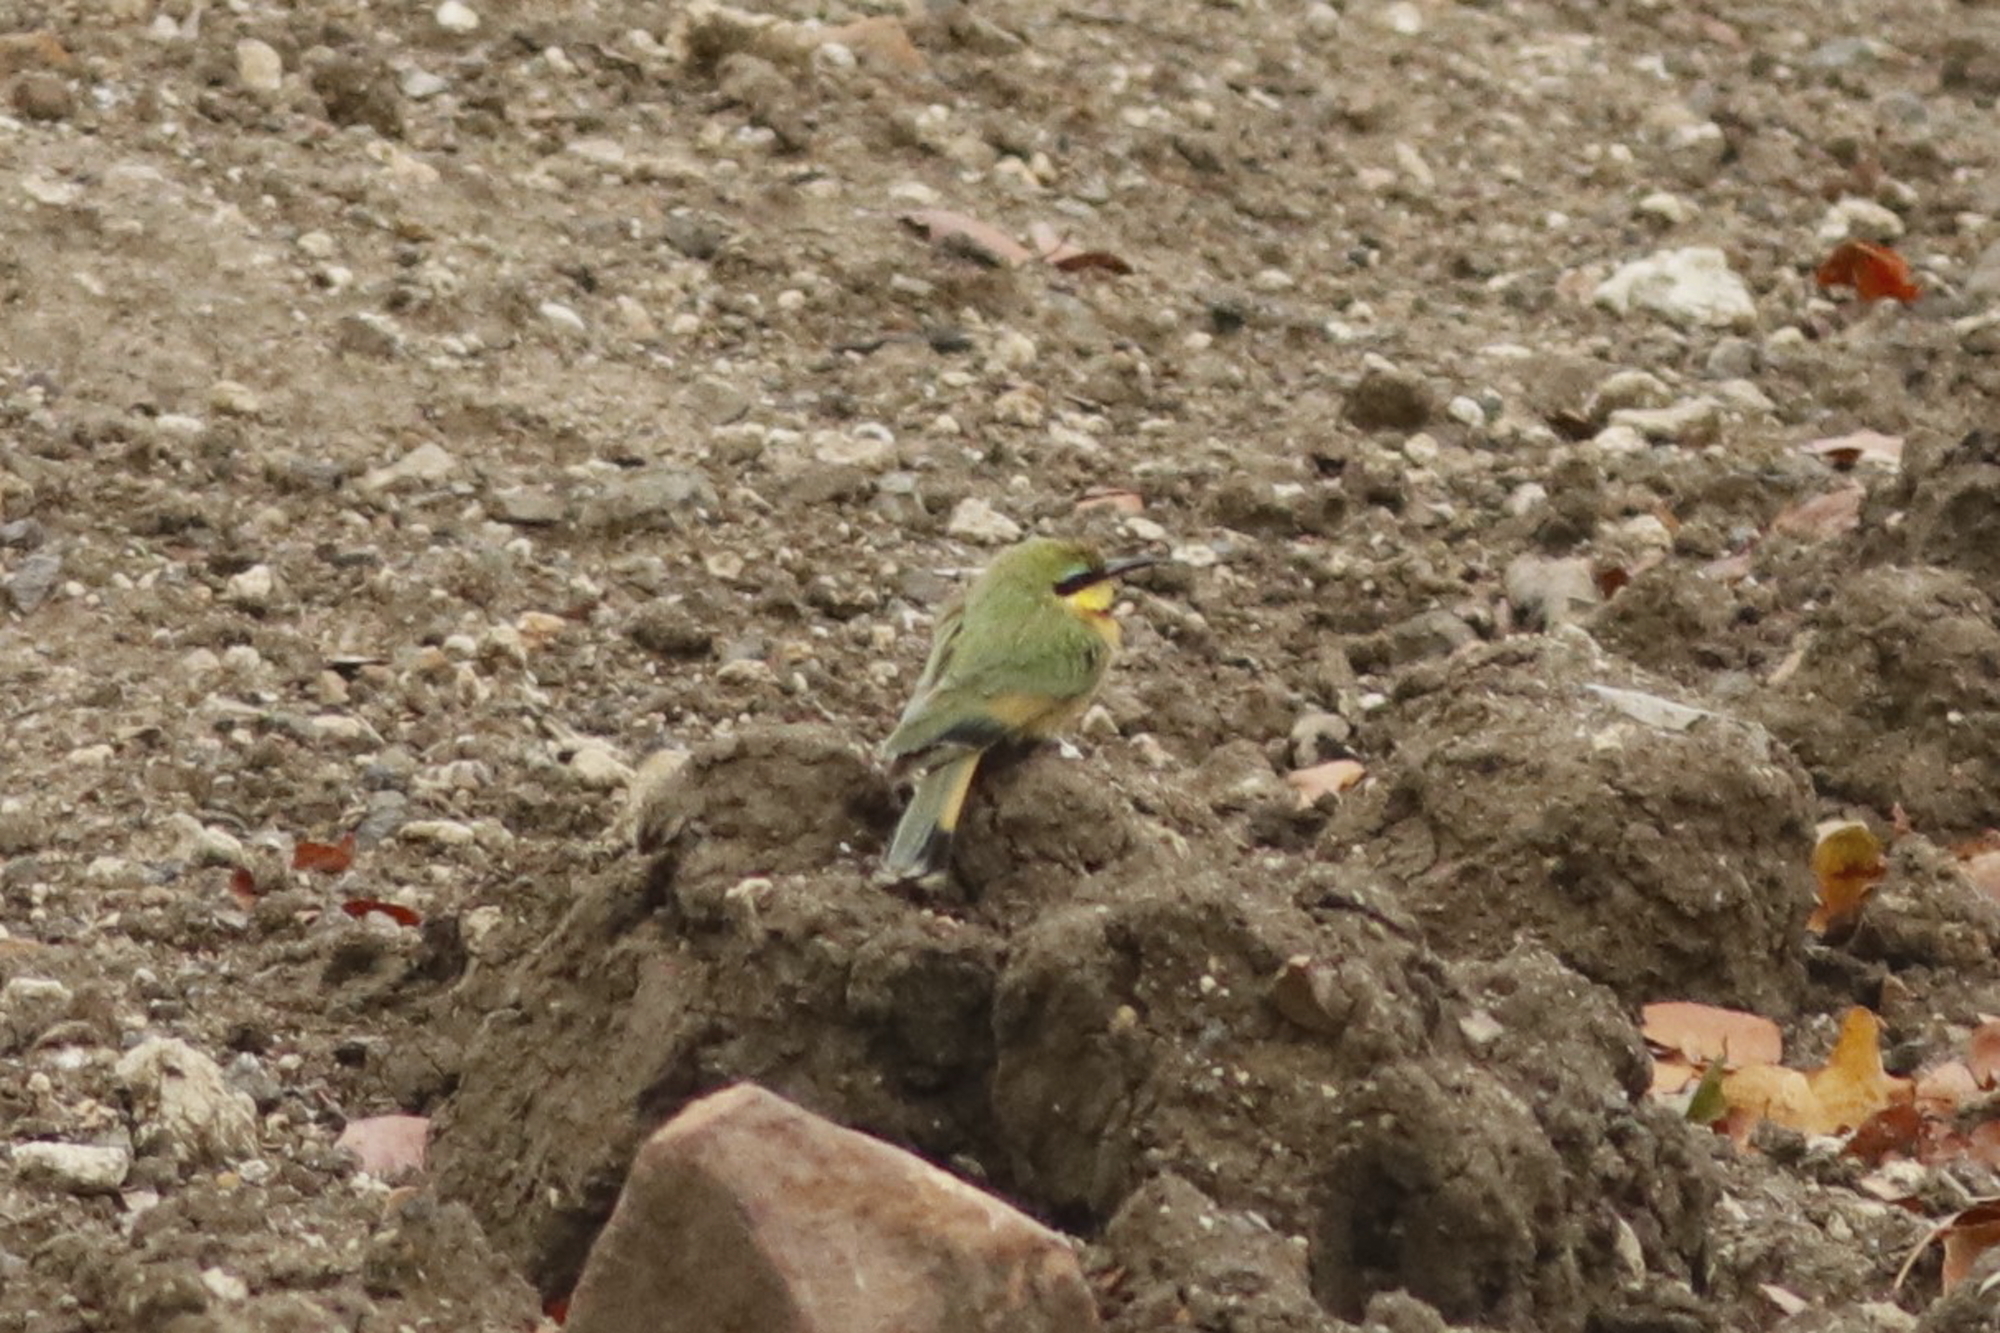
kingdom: Animalia
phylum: Chordata
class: Aves
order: Coraciiformes
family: Meropidae
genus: Merops
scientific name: Merops pusillus
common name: Little bee-eater
